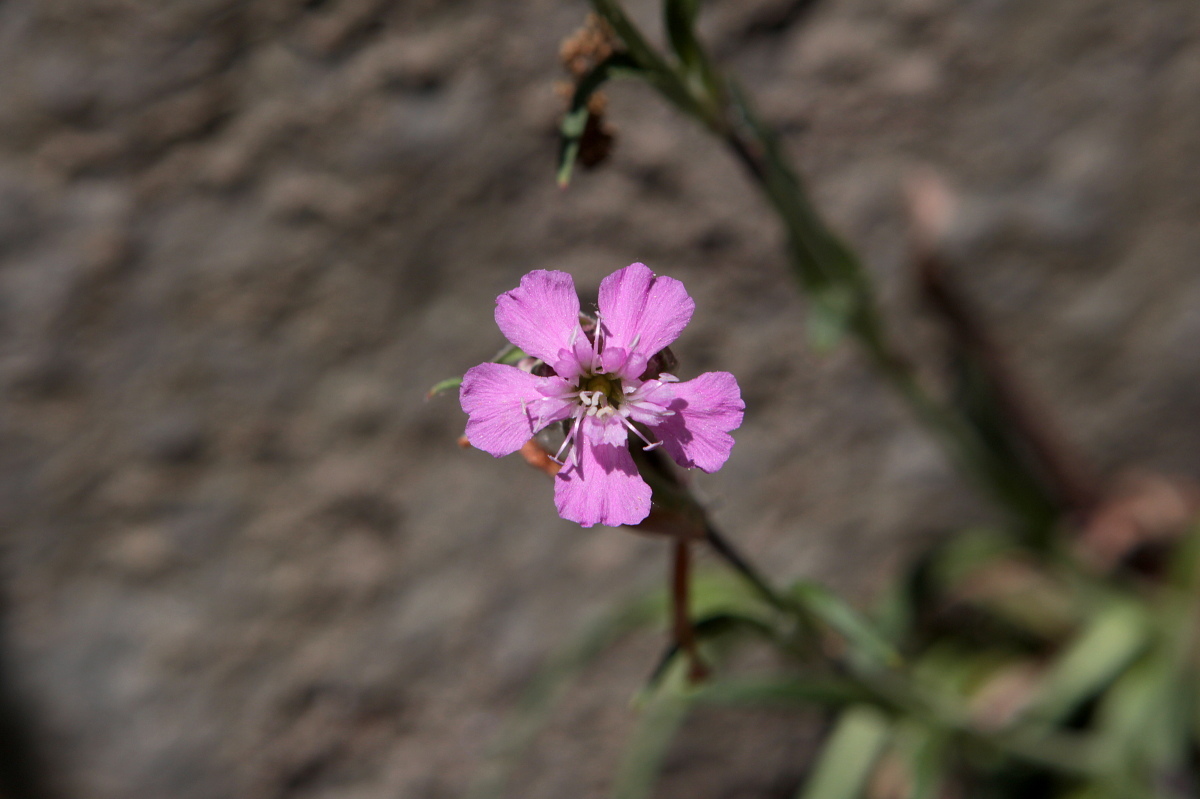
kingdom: Plantae
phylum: Tracheophyta
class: Magnoliopsida
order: Caryophyllales
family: Caryophyllaceae
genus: Viscaria
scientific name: Viscaria vulgaris
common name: Clammy campion
